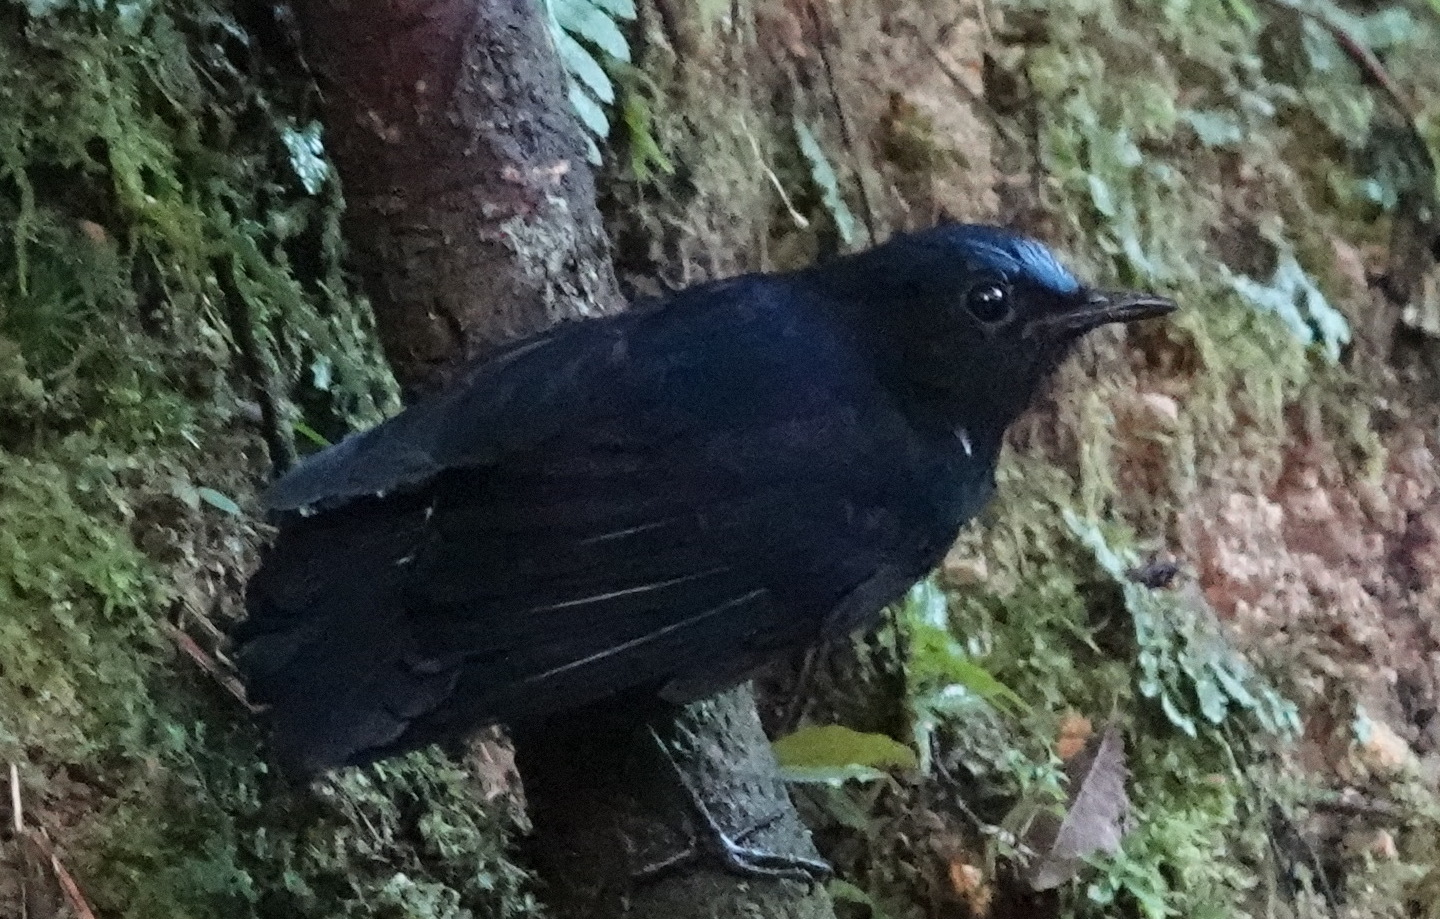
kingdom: Animalia
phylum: Chordata
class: Aves
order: Passeriformes
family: Muscicapidae
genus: Myiomela
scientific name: Myiomela leucura
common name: White-tailed robin
